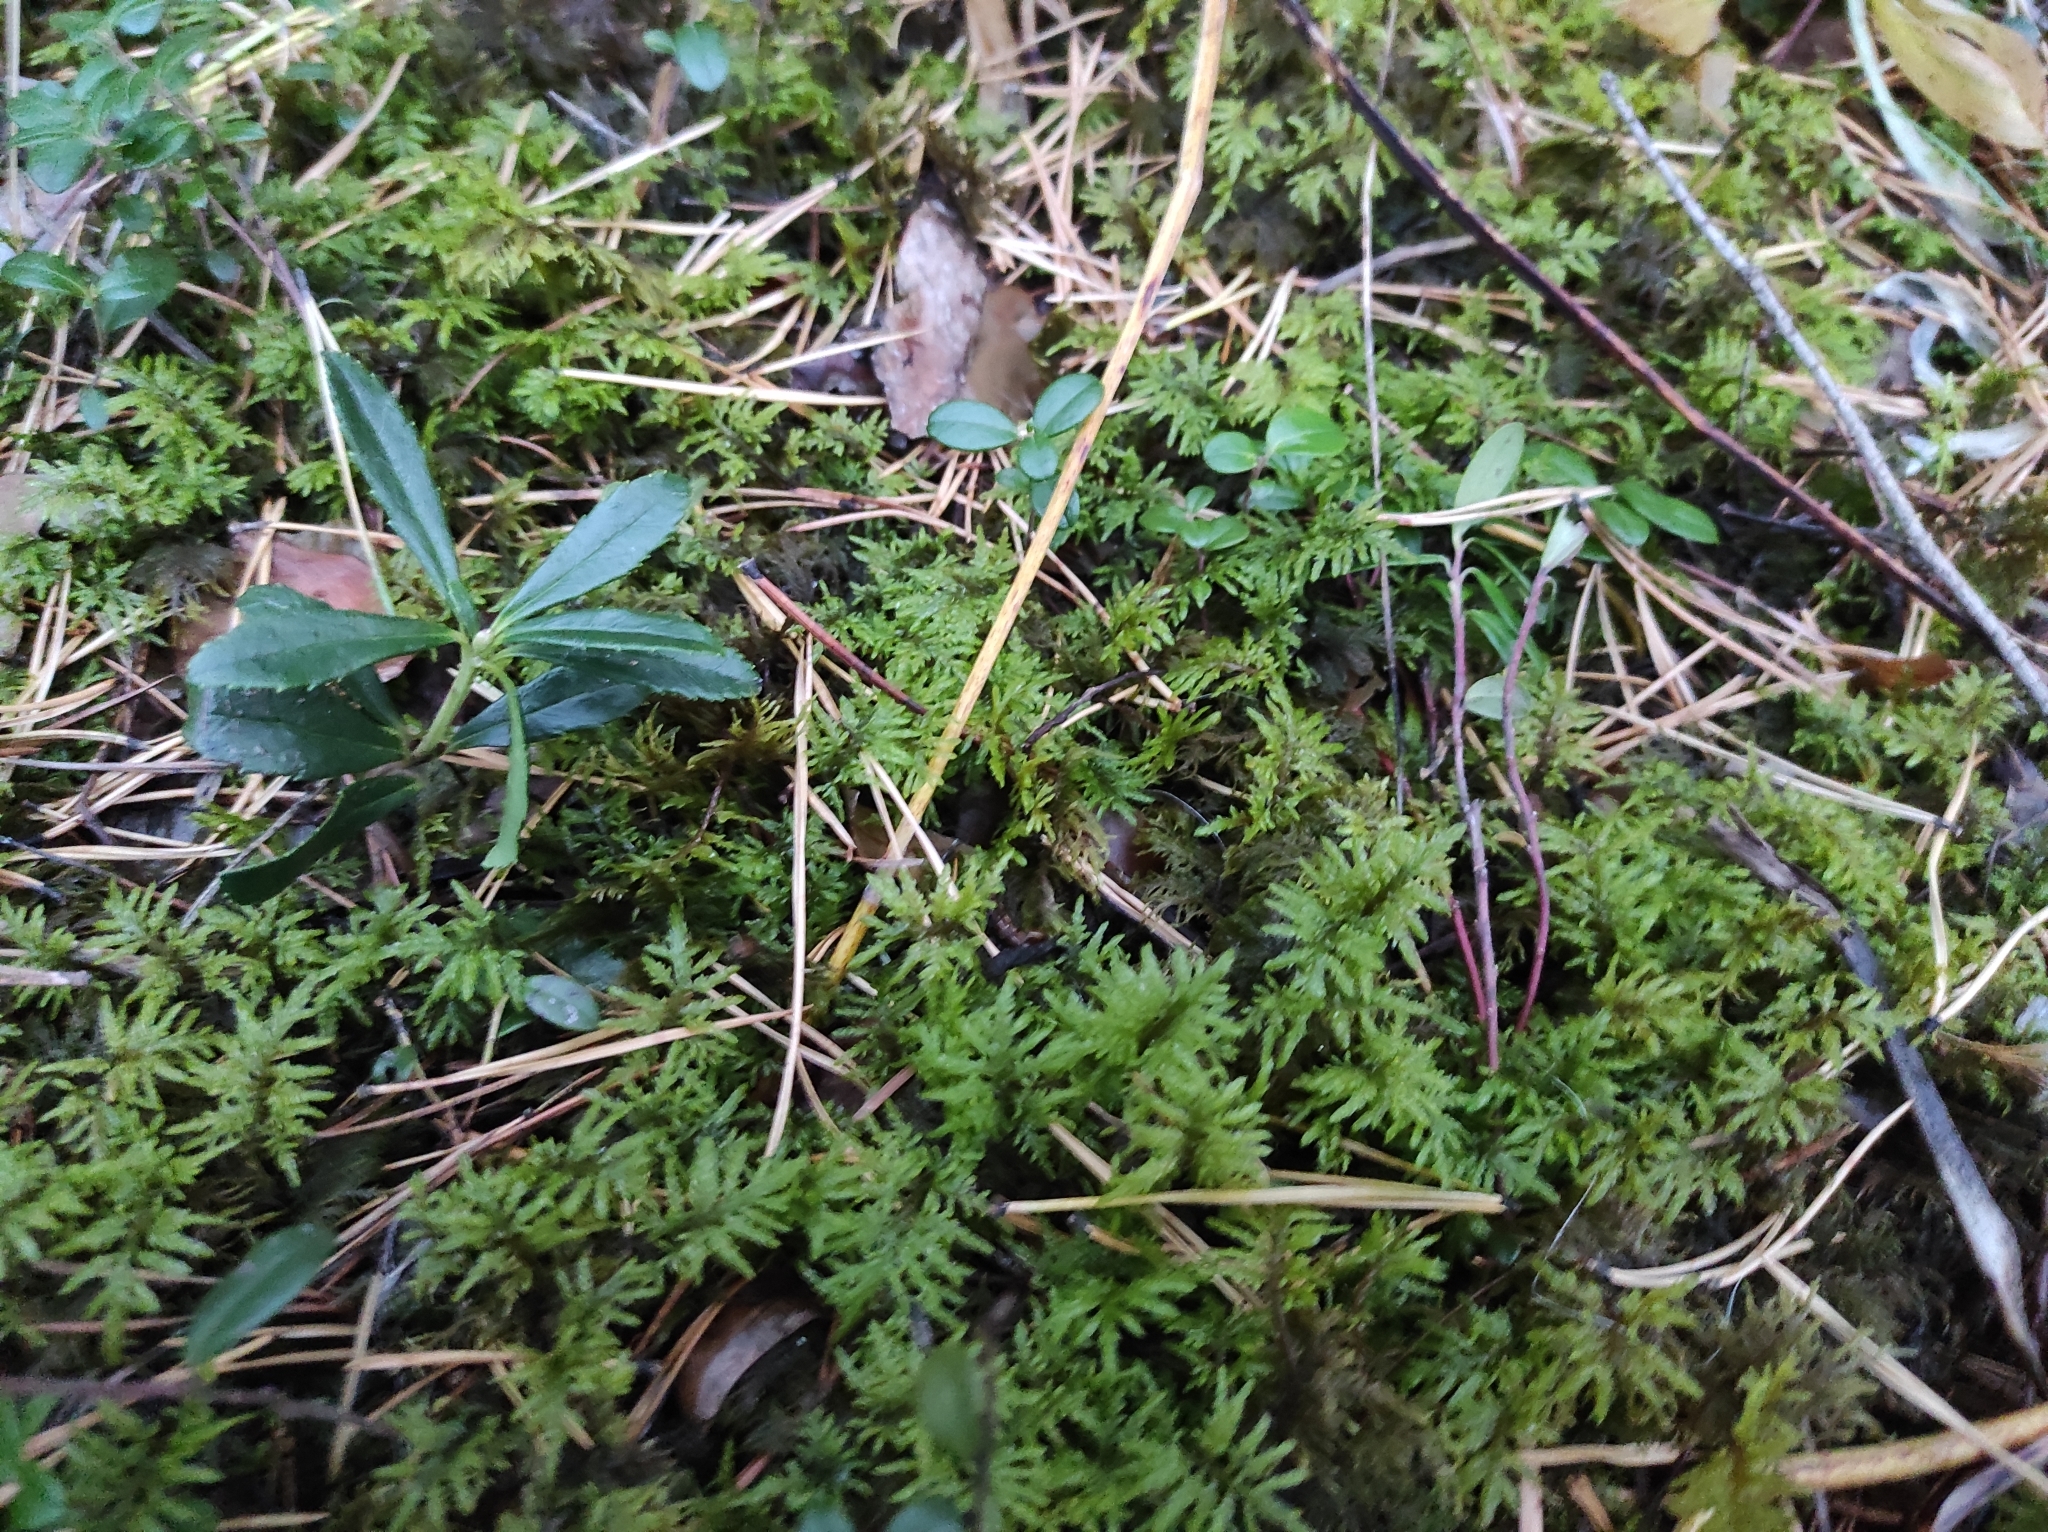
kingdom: Plantae
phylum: Bryophyta
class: Bryopsida
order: Hypnales
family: Hylocomiaceae
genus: Hylocomium
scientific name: Hylocomium splendens
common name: Stairstep moss
